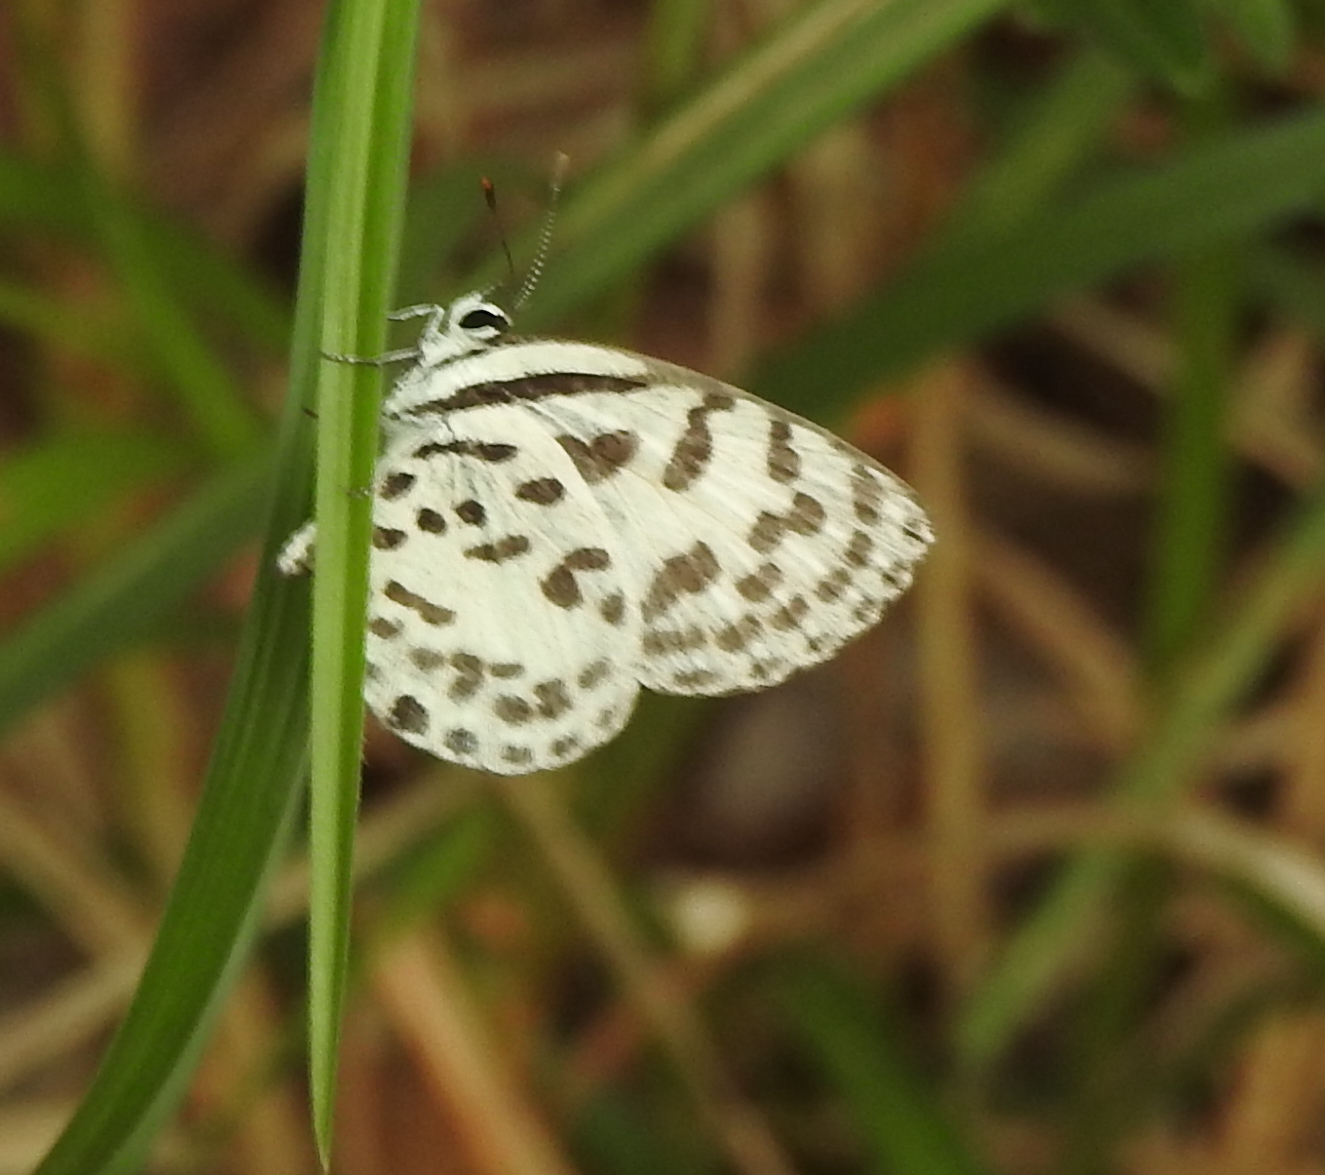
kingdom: Animalia
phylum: Arthropoda
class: Insecta
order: Lepidoptera
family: Lycaenidae
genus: Castalius
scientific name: Castalius rosimon
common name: Common pierrot
